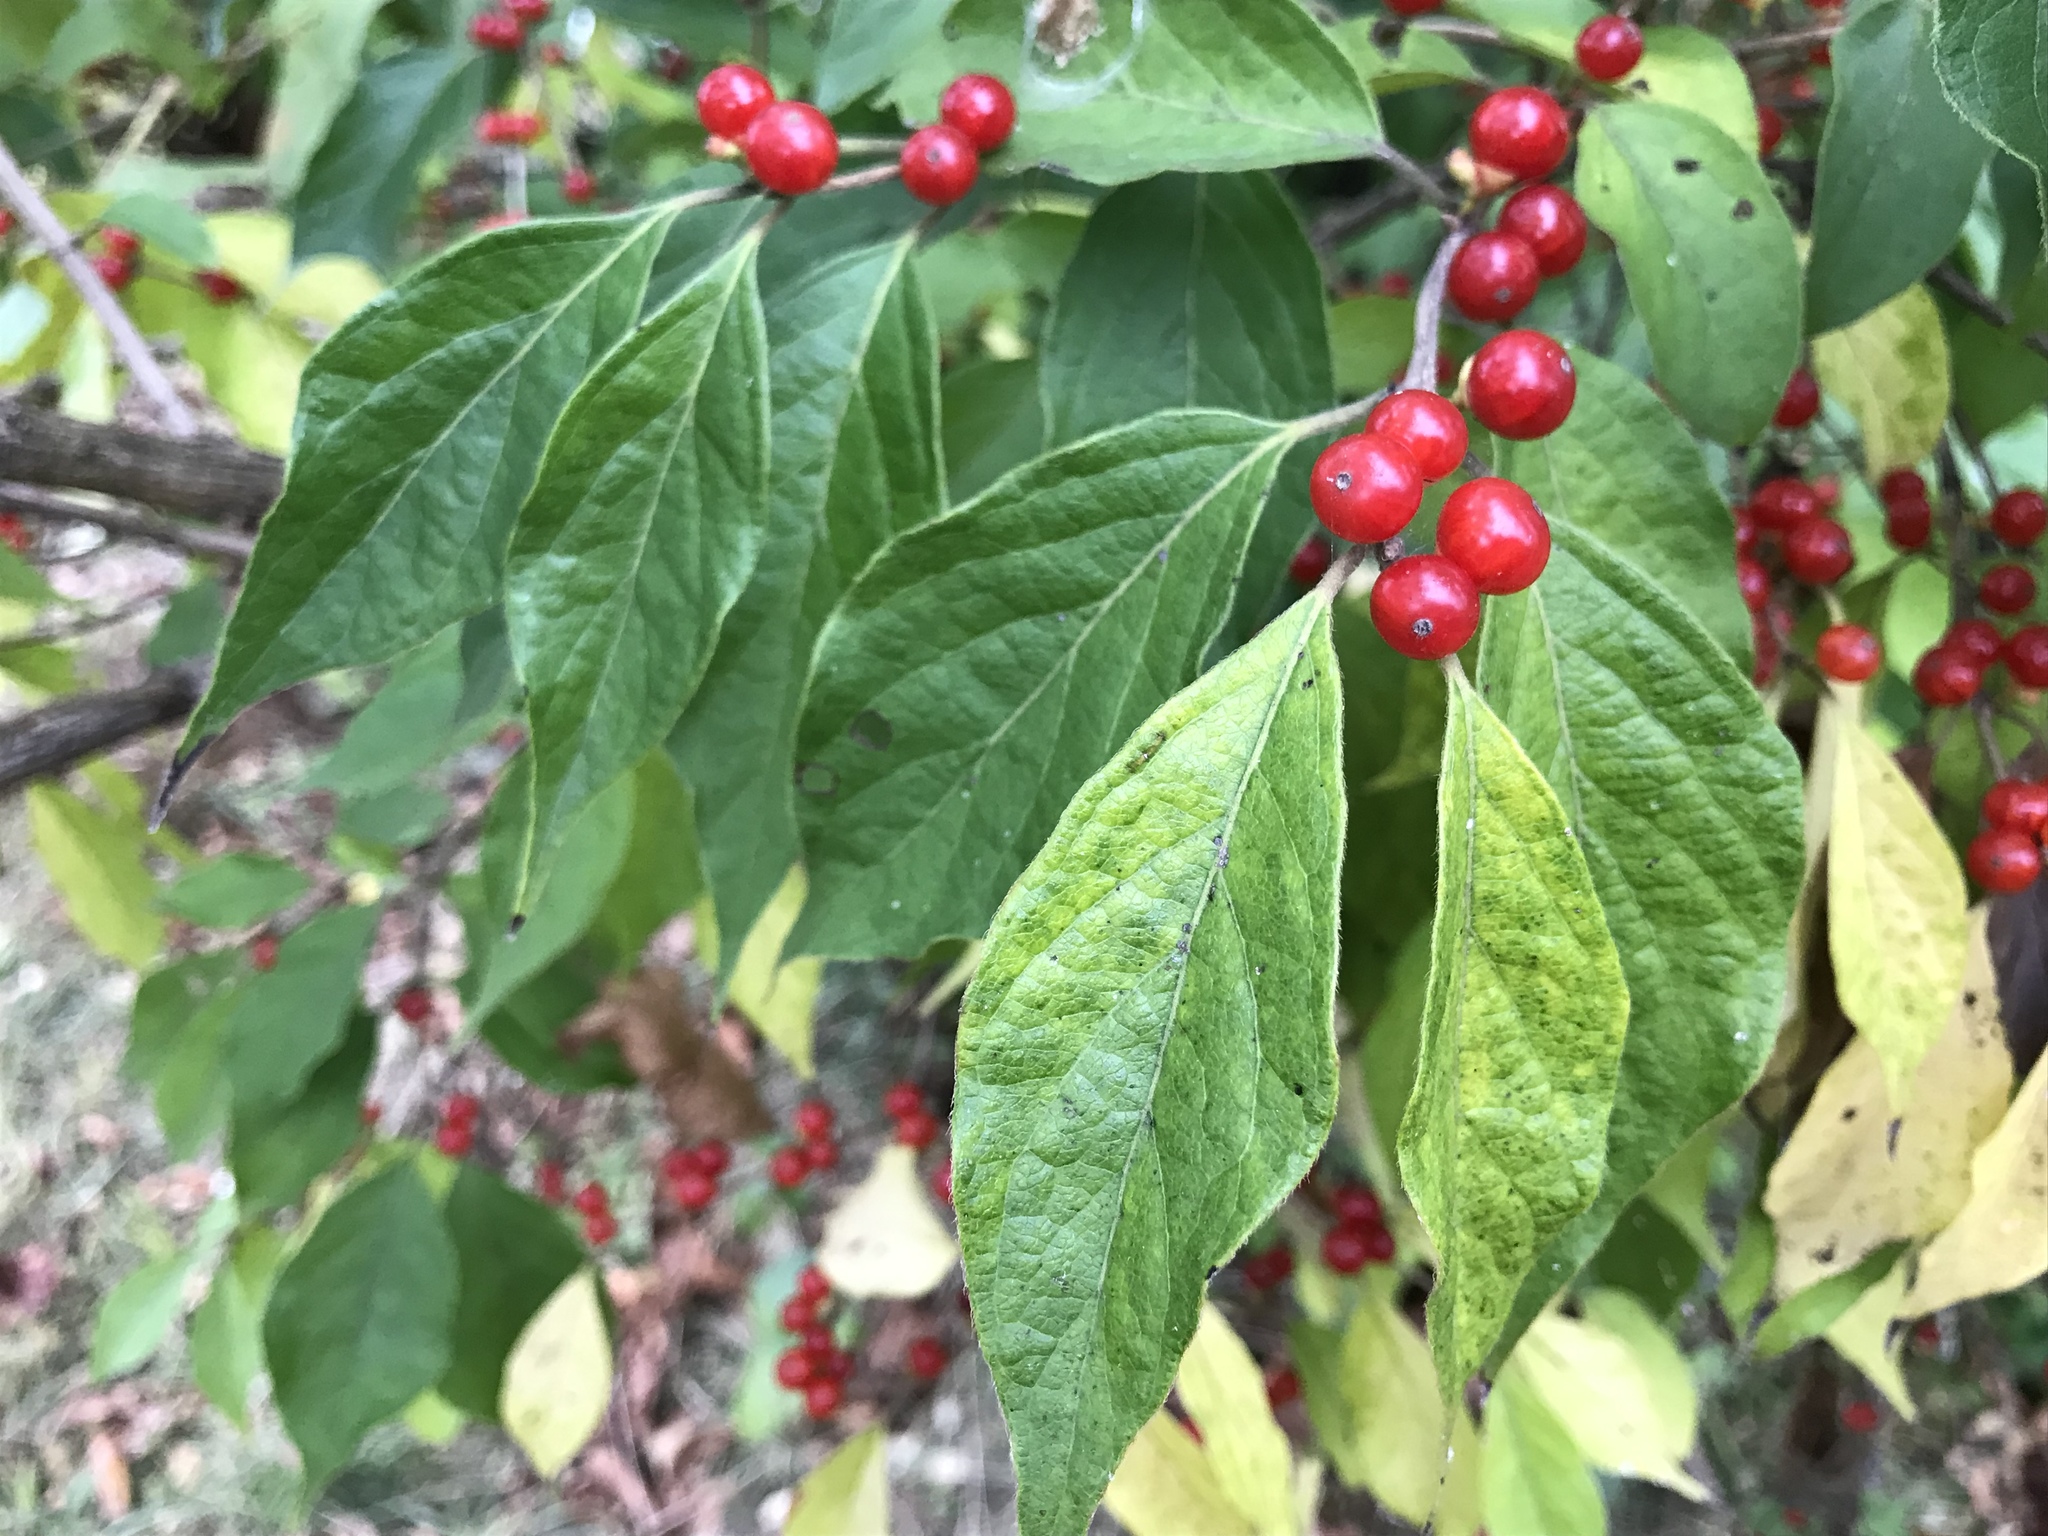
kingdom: Plantae
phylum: Tracheophyta
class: Magnoliopsida
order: Dipsacales
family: Caprifoliaceae
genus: Lonicera
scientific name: Lonicera maackii
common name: Amur honeysuckle
